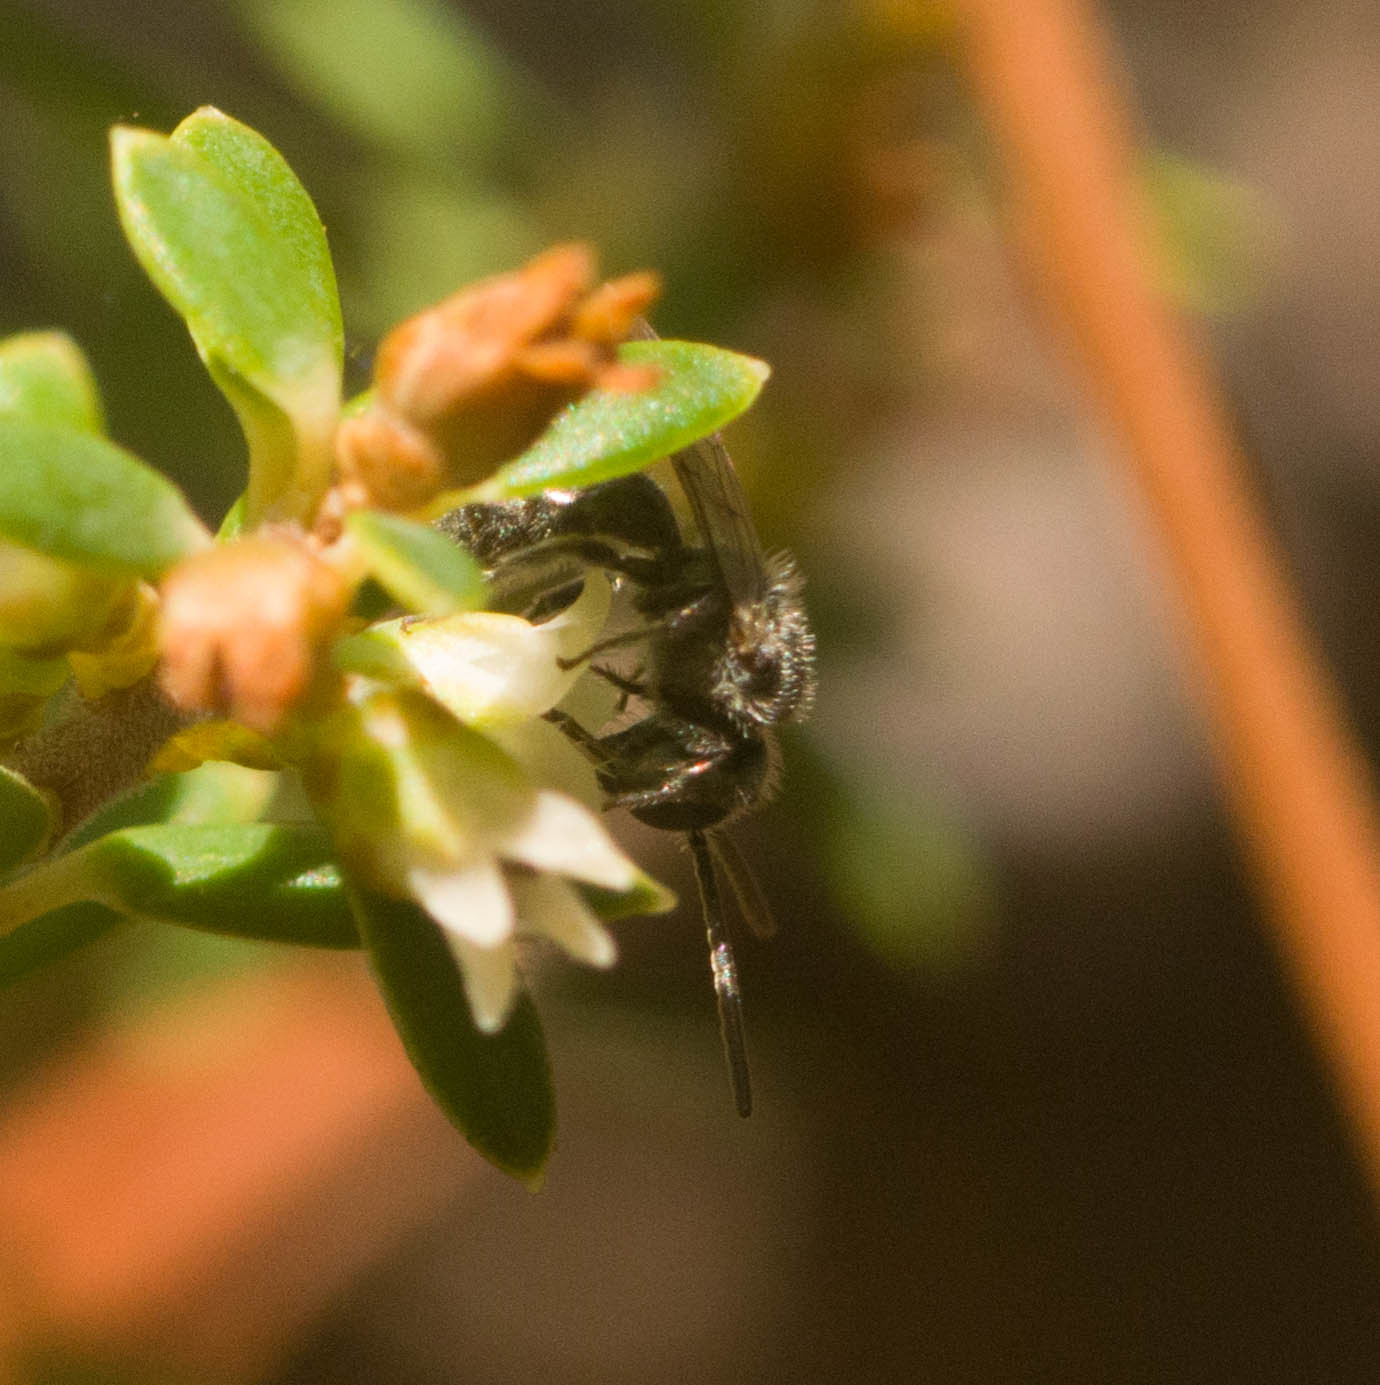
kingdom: Animalia
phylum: Arthropoda
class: Insecta
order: Hymenoptera
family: Halictidae
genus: Lasioglossum
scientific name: Lasioglossum
